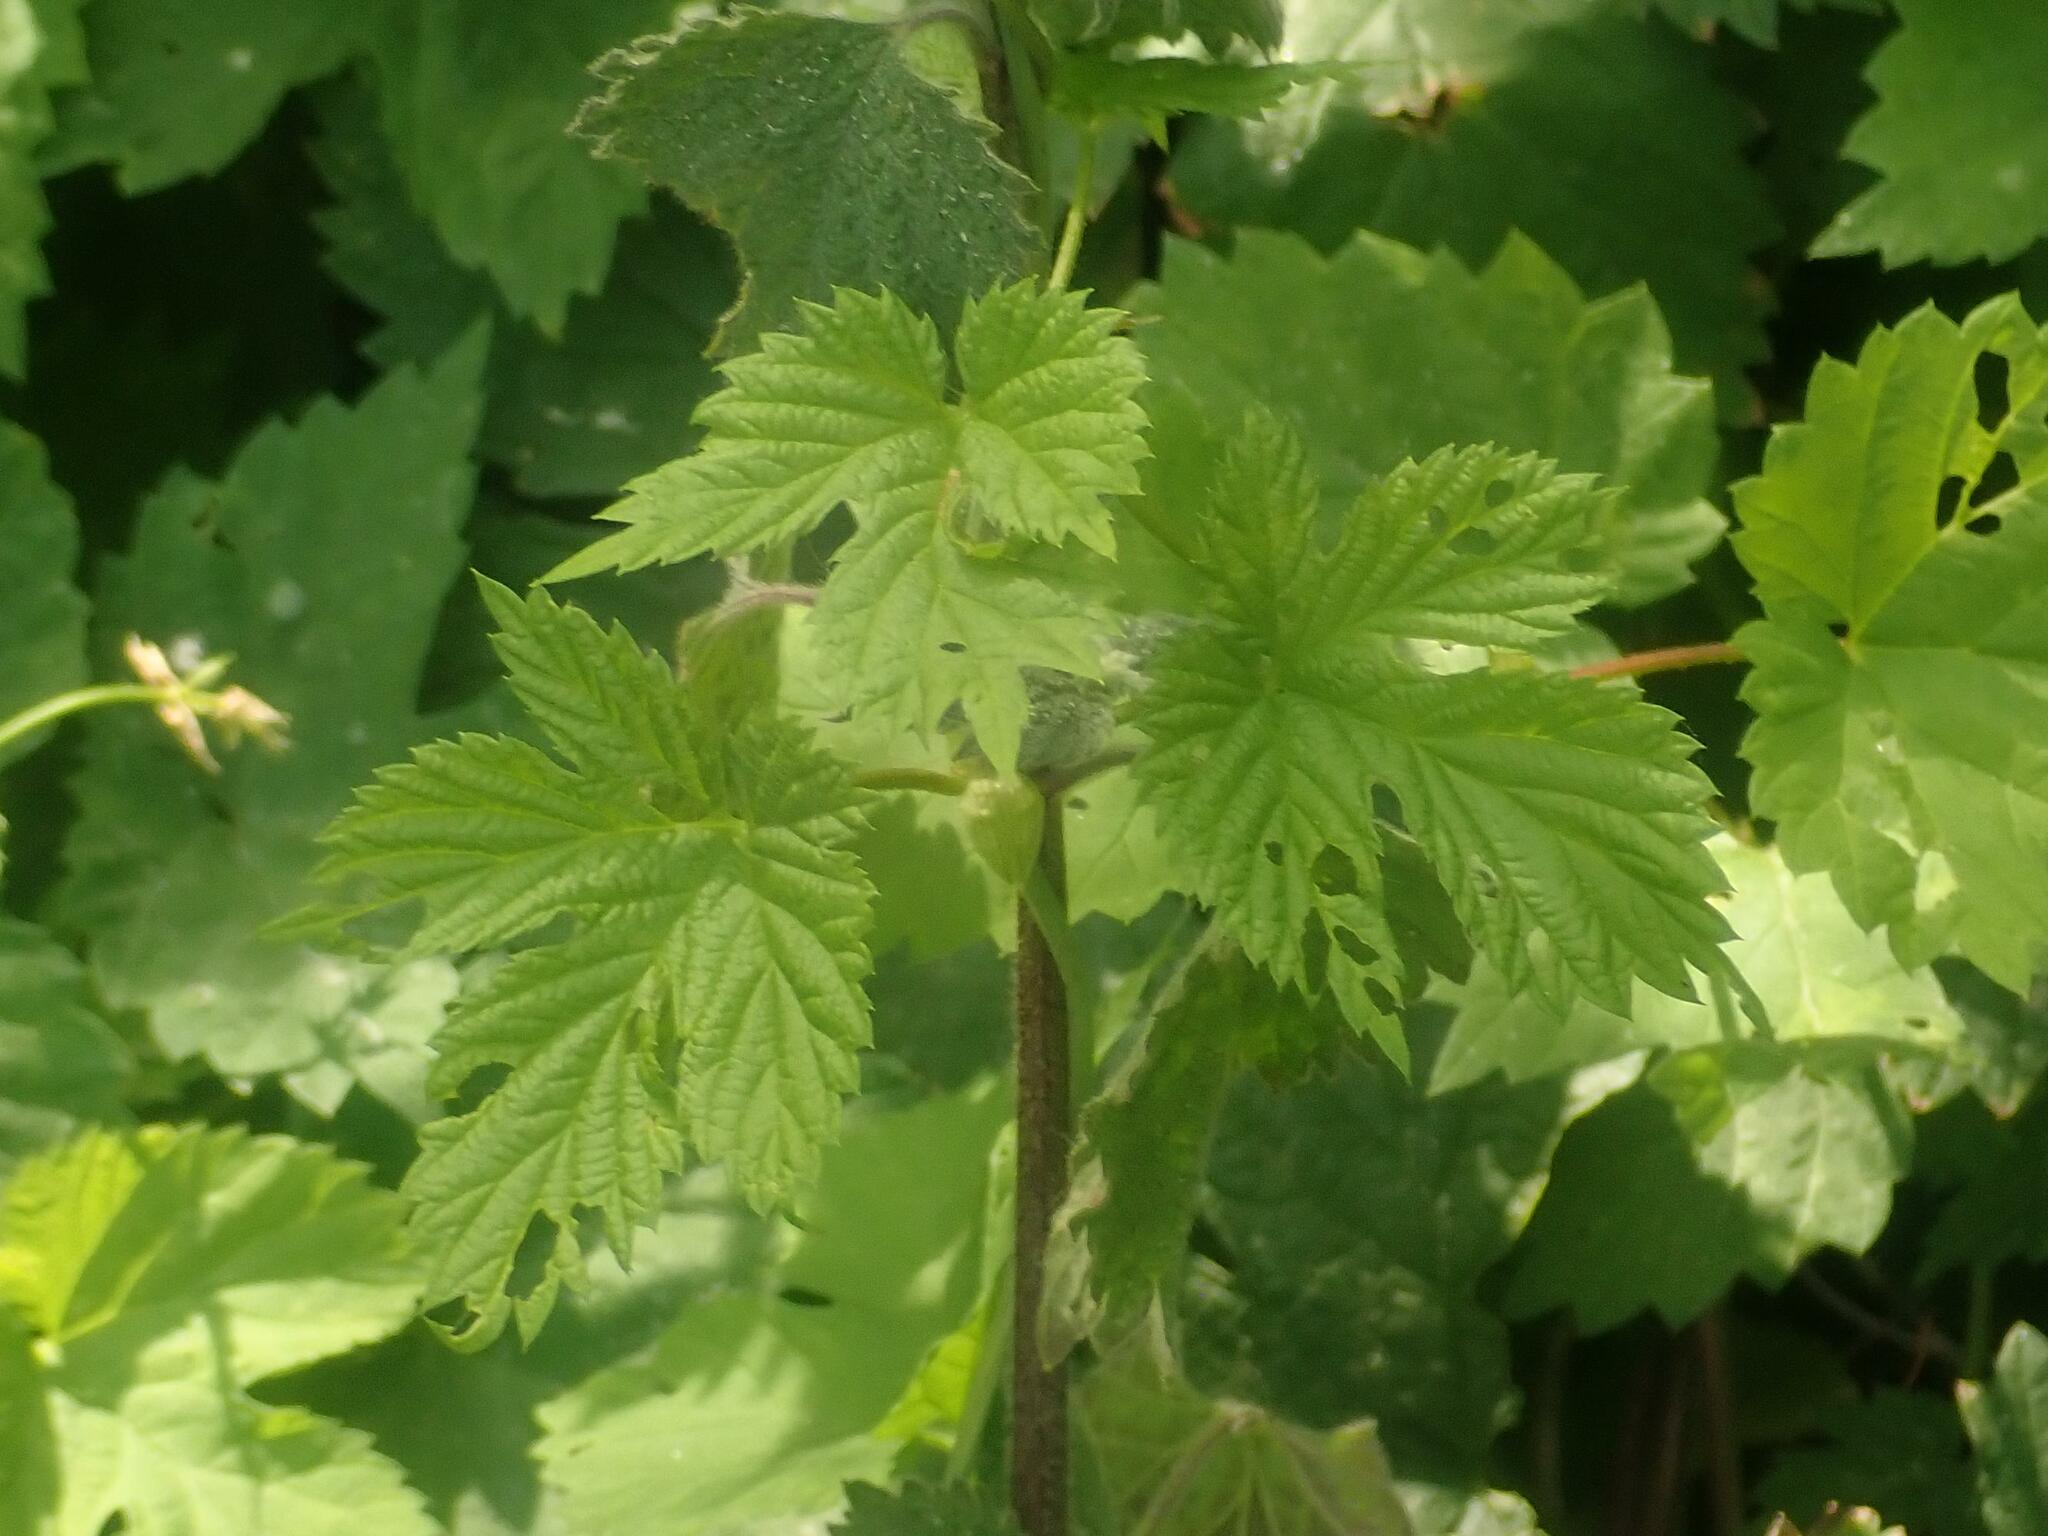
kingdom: Plantae
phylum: Tracheophyta
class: Magnoliopsida
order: Rosales
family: Cannabaceae
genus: Humulus
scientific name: Humulus lupulus
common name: Hop
